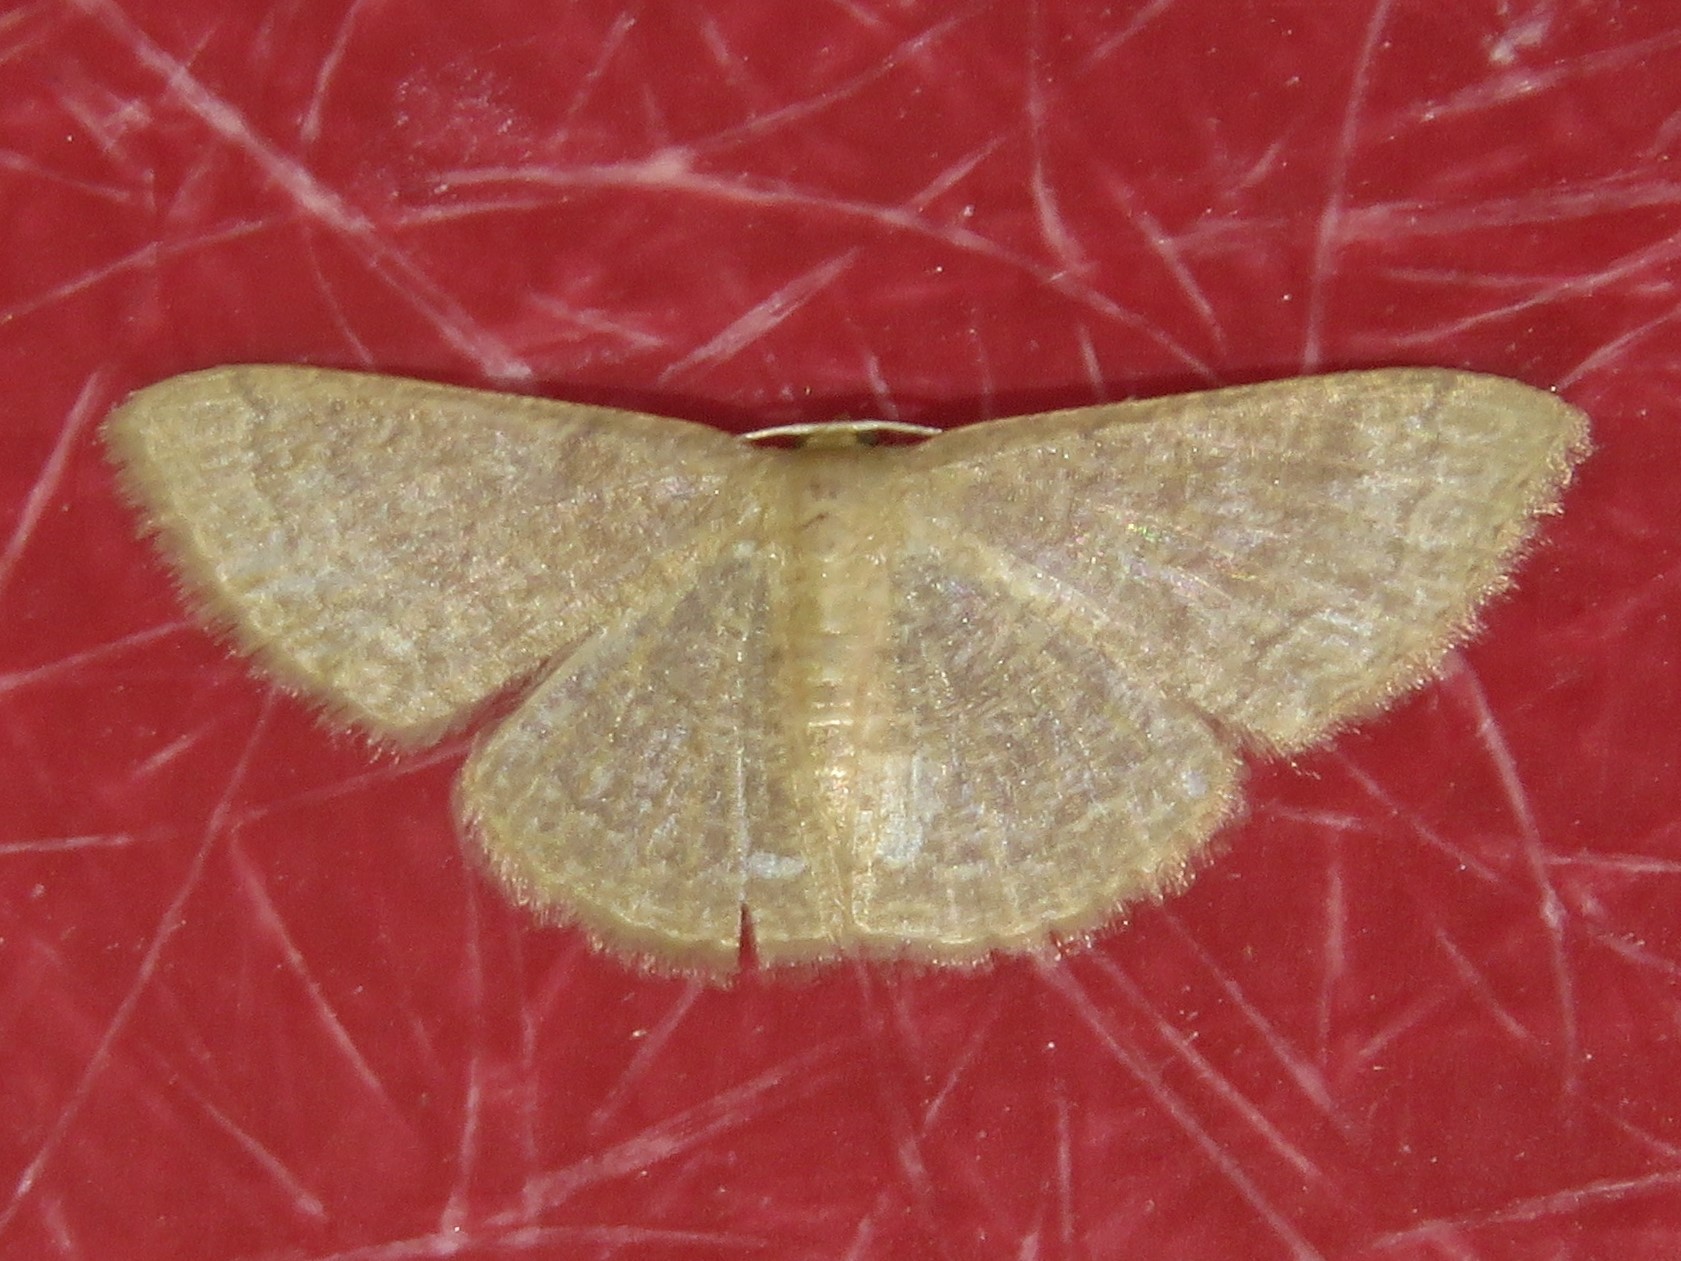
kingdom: Animalia
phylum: Arthropoda
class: Insecta
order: Lepidoptera
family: Geometridae
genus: Pleuroprucha
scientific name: Pleuroprucha insulsaria
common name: Common tan wave
